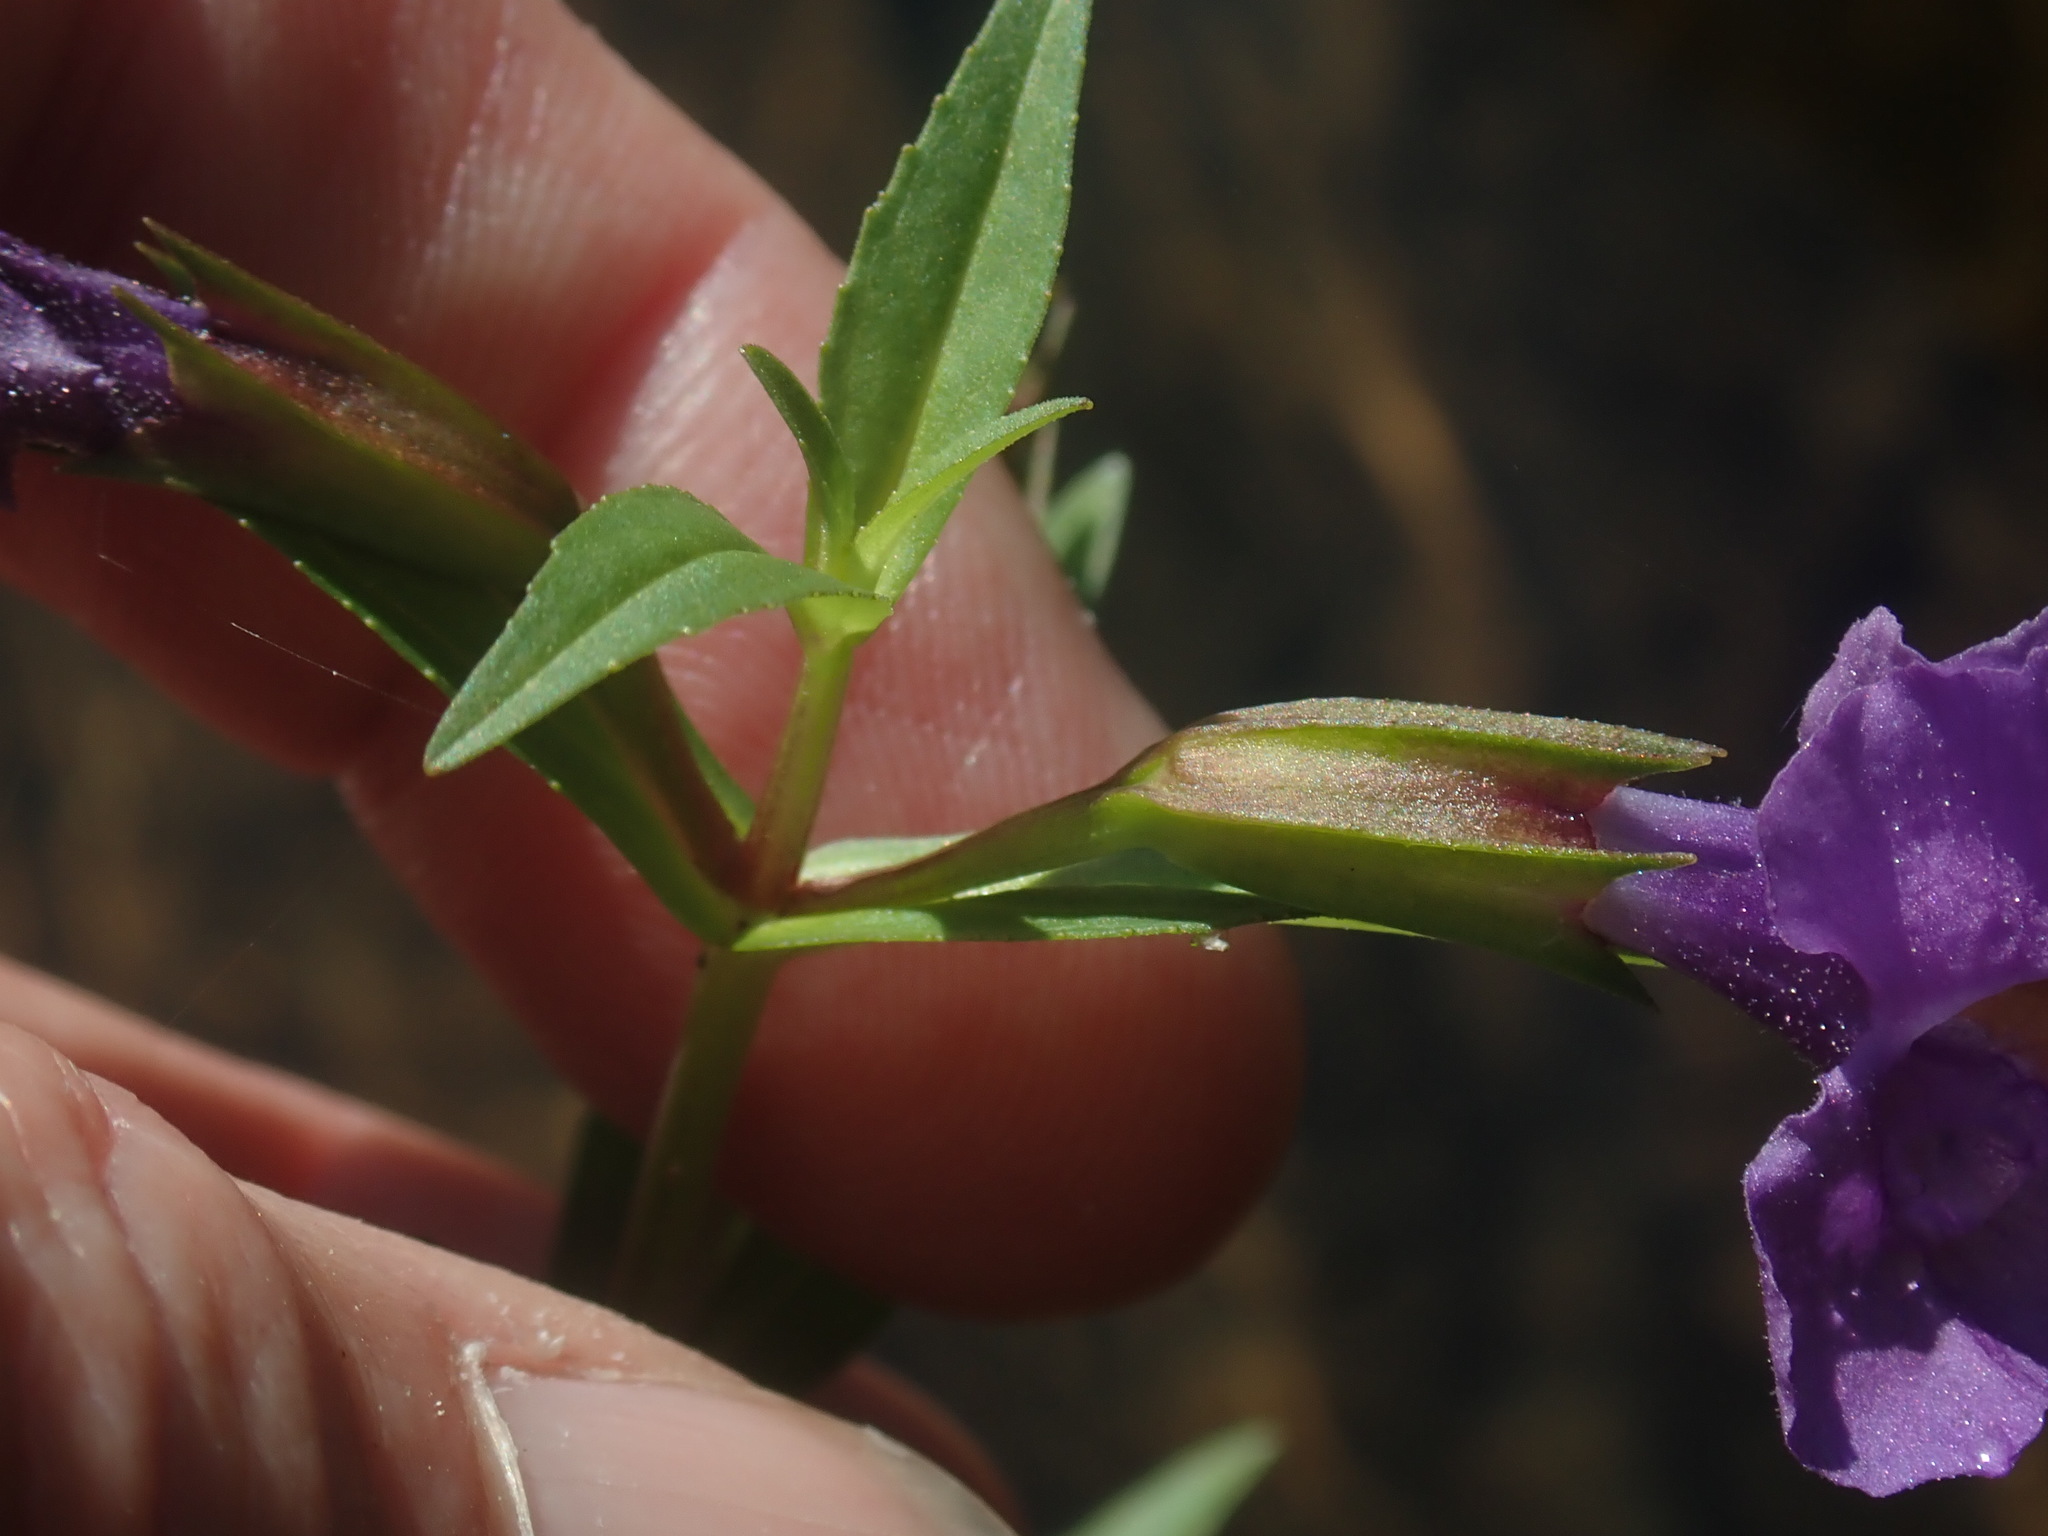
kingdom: Plantae
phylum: Tracheophyta
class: Magnoliopsida
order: Lamiales
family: Phrymaceae
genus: Mimulus
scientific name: Mimulus ringens
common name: Allegheny monkeyflower
